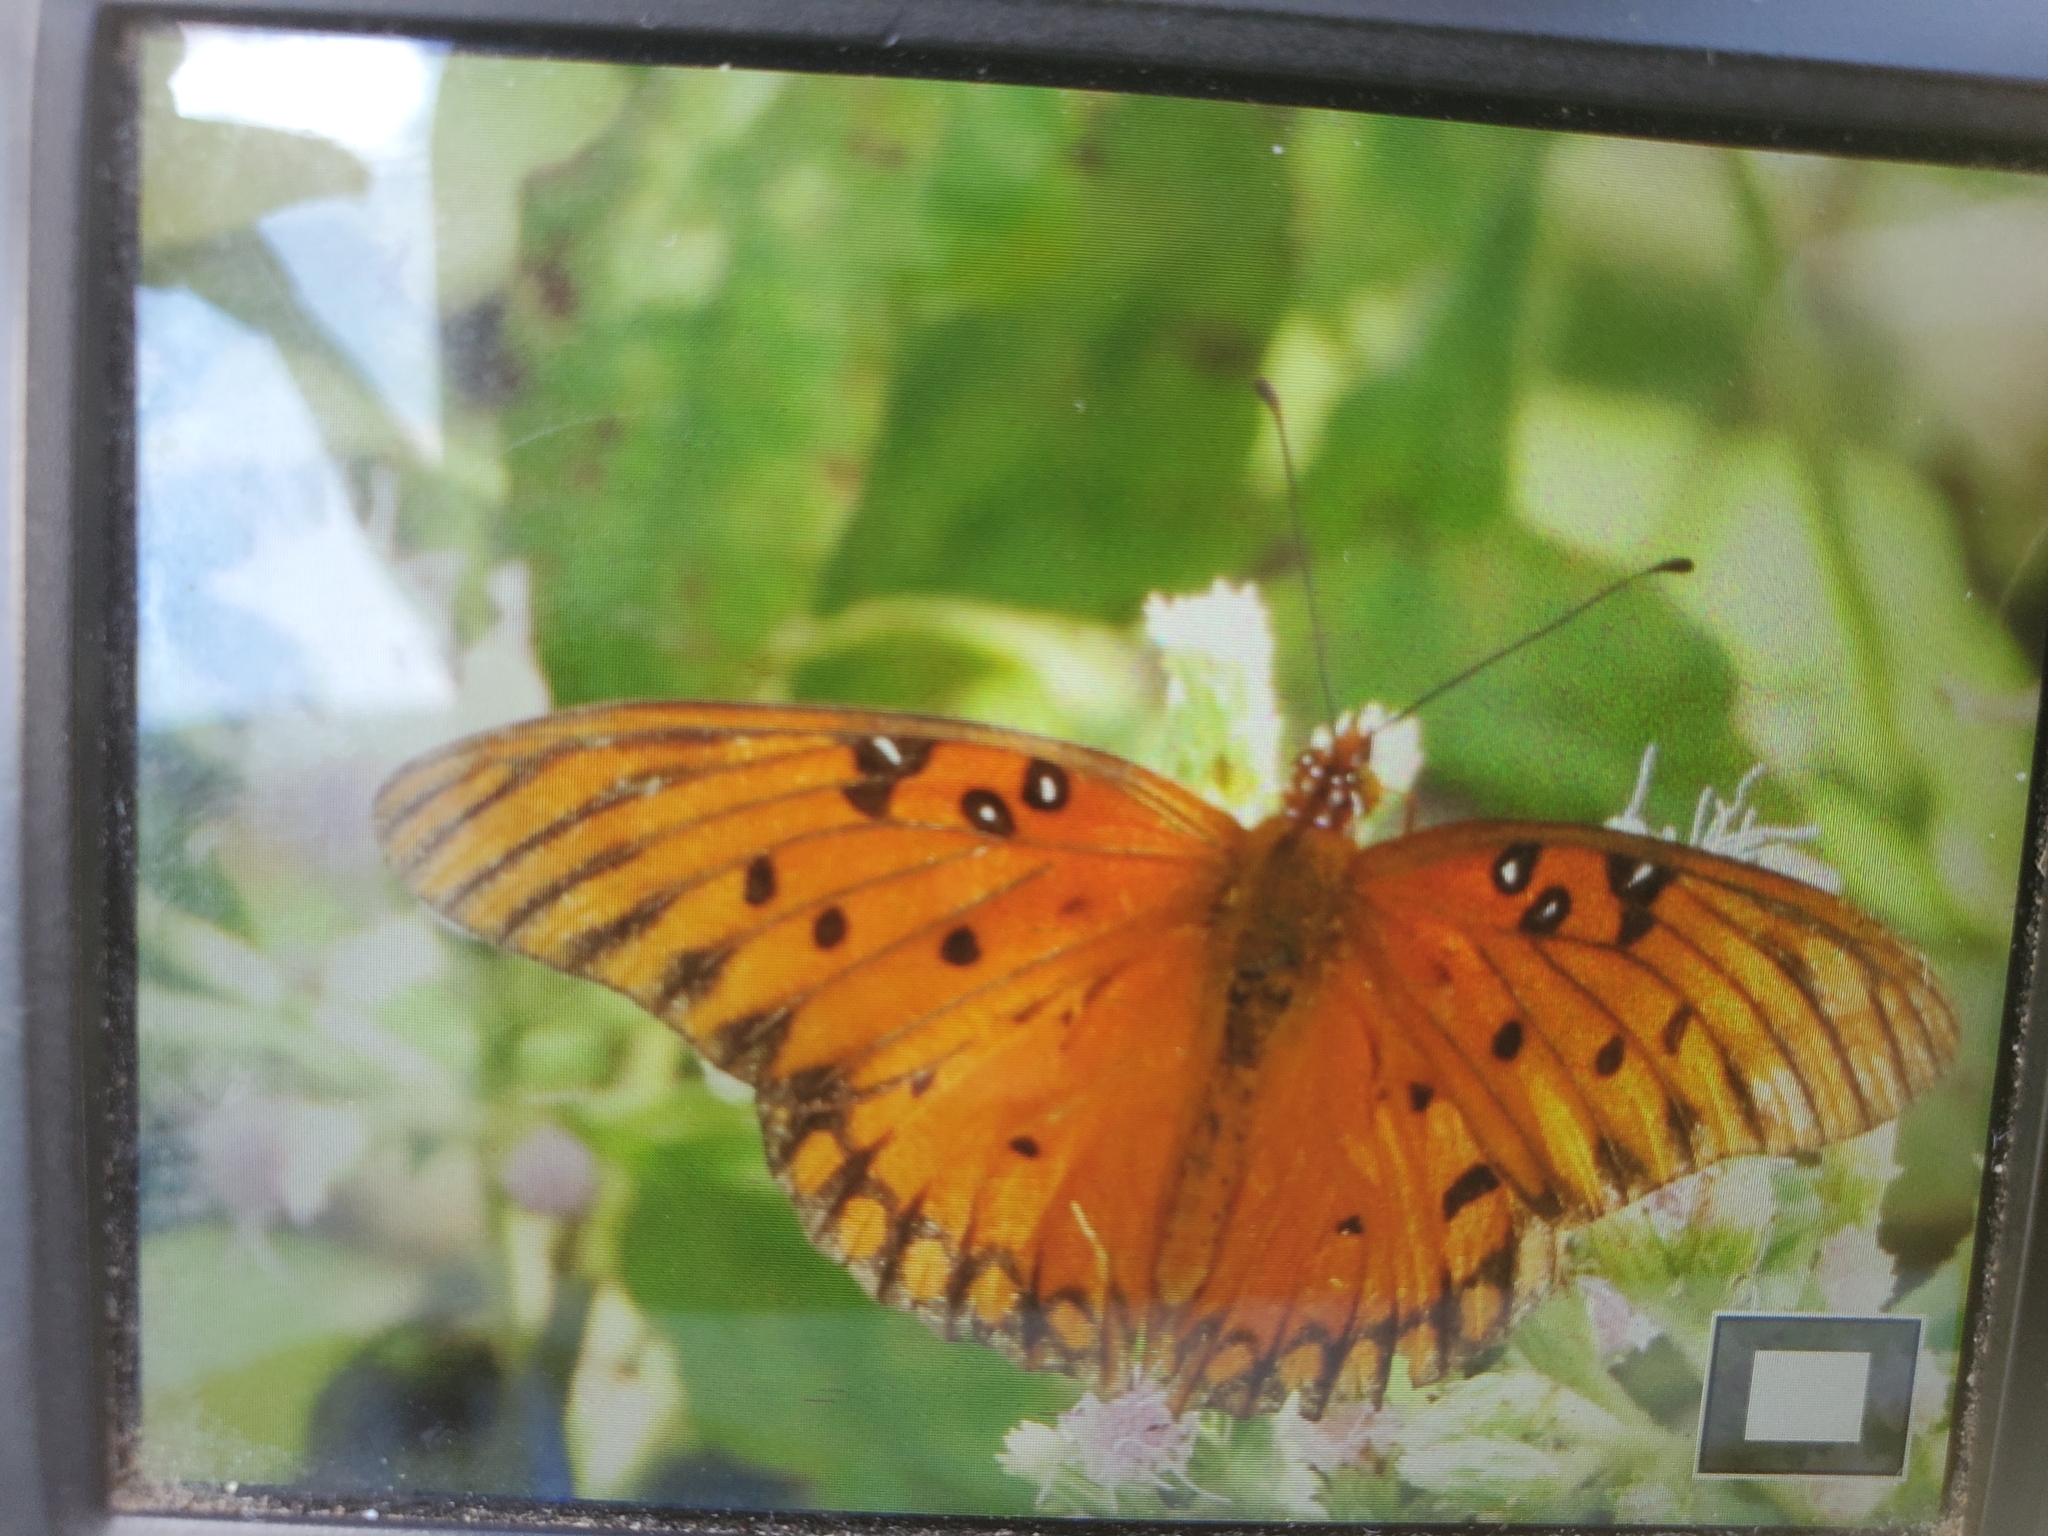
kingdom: Animalia
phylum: Arthropoda
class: Insecta
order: Lepidoptera
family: Nymphalidae
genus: Dione
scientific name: Dione vanillae
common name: Gulf fritillary
